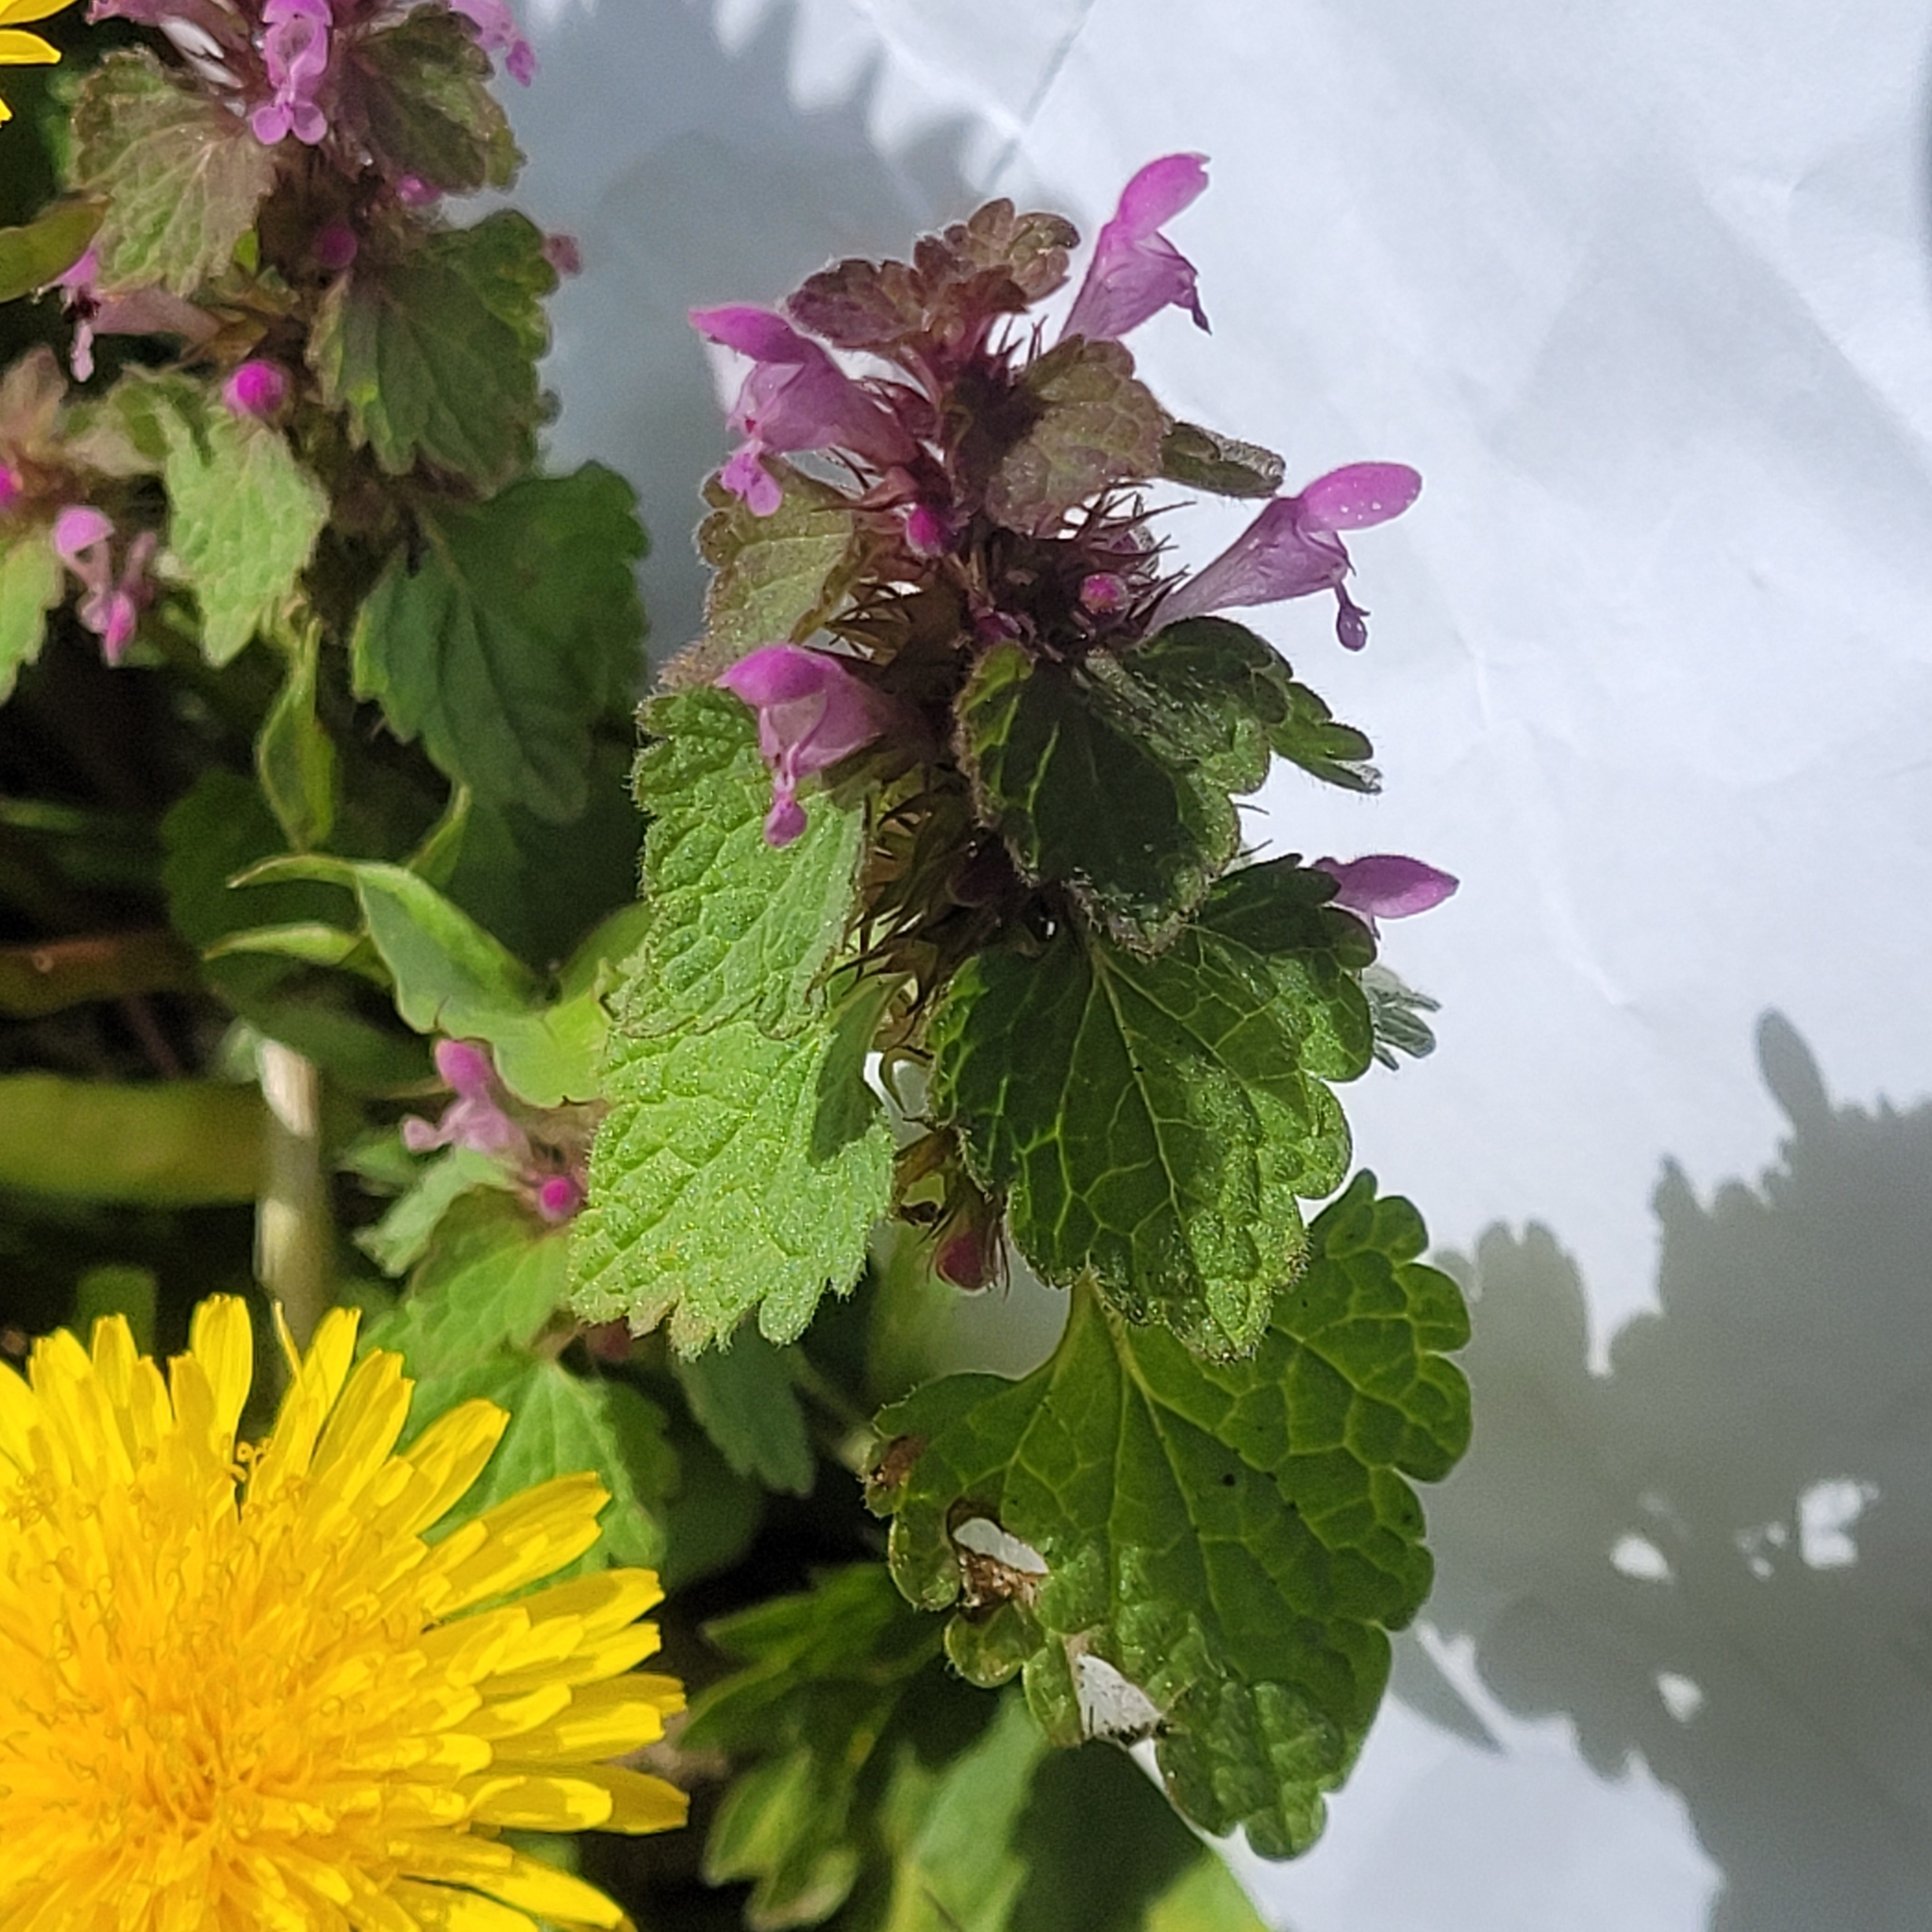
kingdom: Plantae
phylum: Tracheophyta
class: Magnoliopsida
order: Lamiales
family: Lamiaceae
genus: Lamium
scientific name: Lamium purpureum
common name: Red dead-nettle
